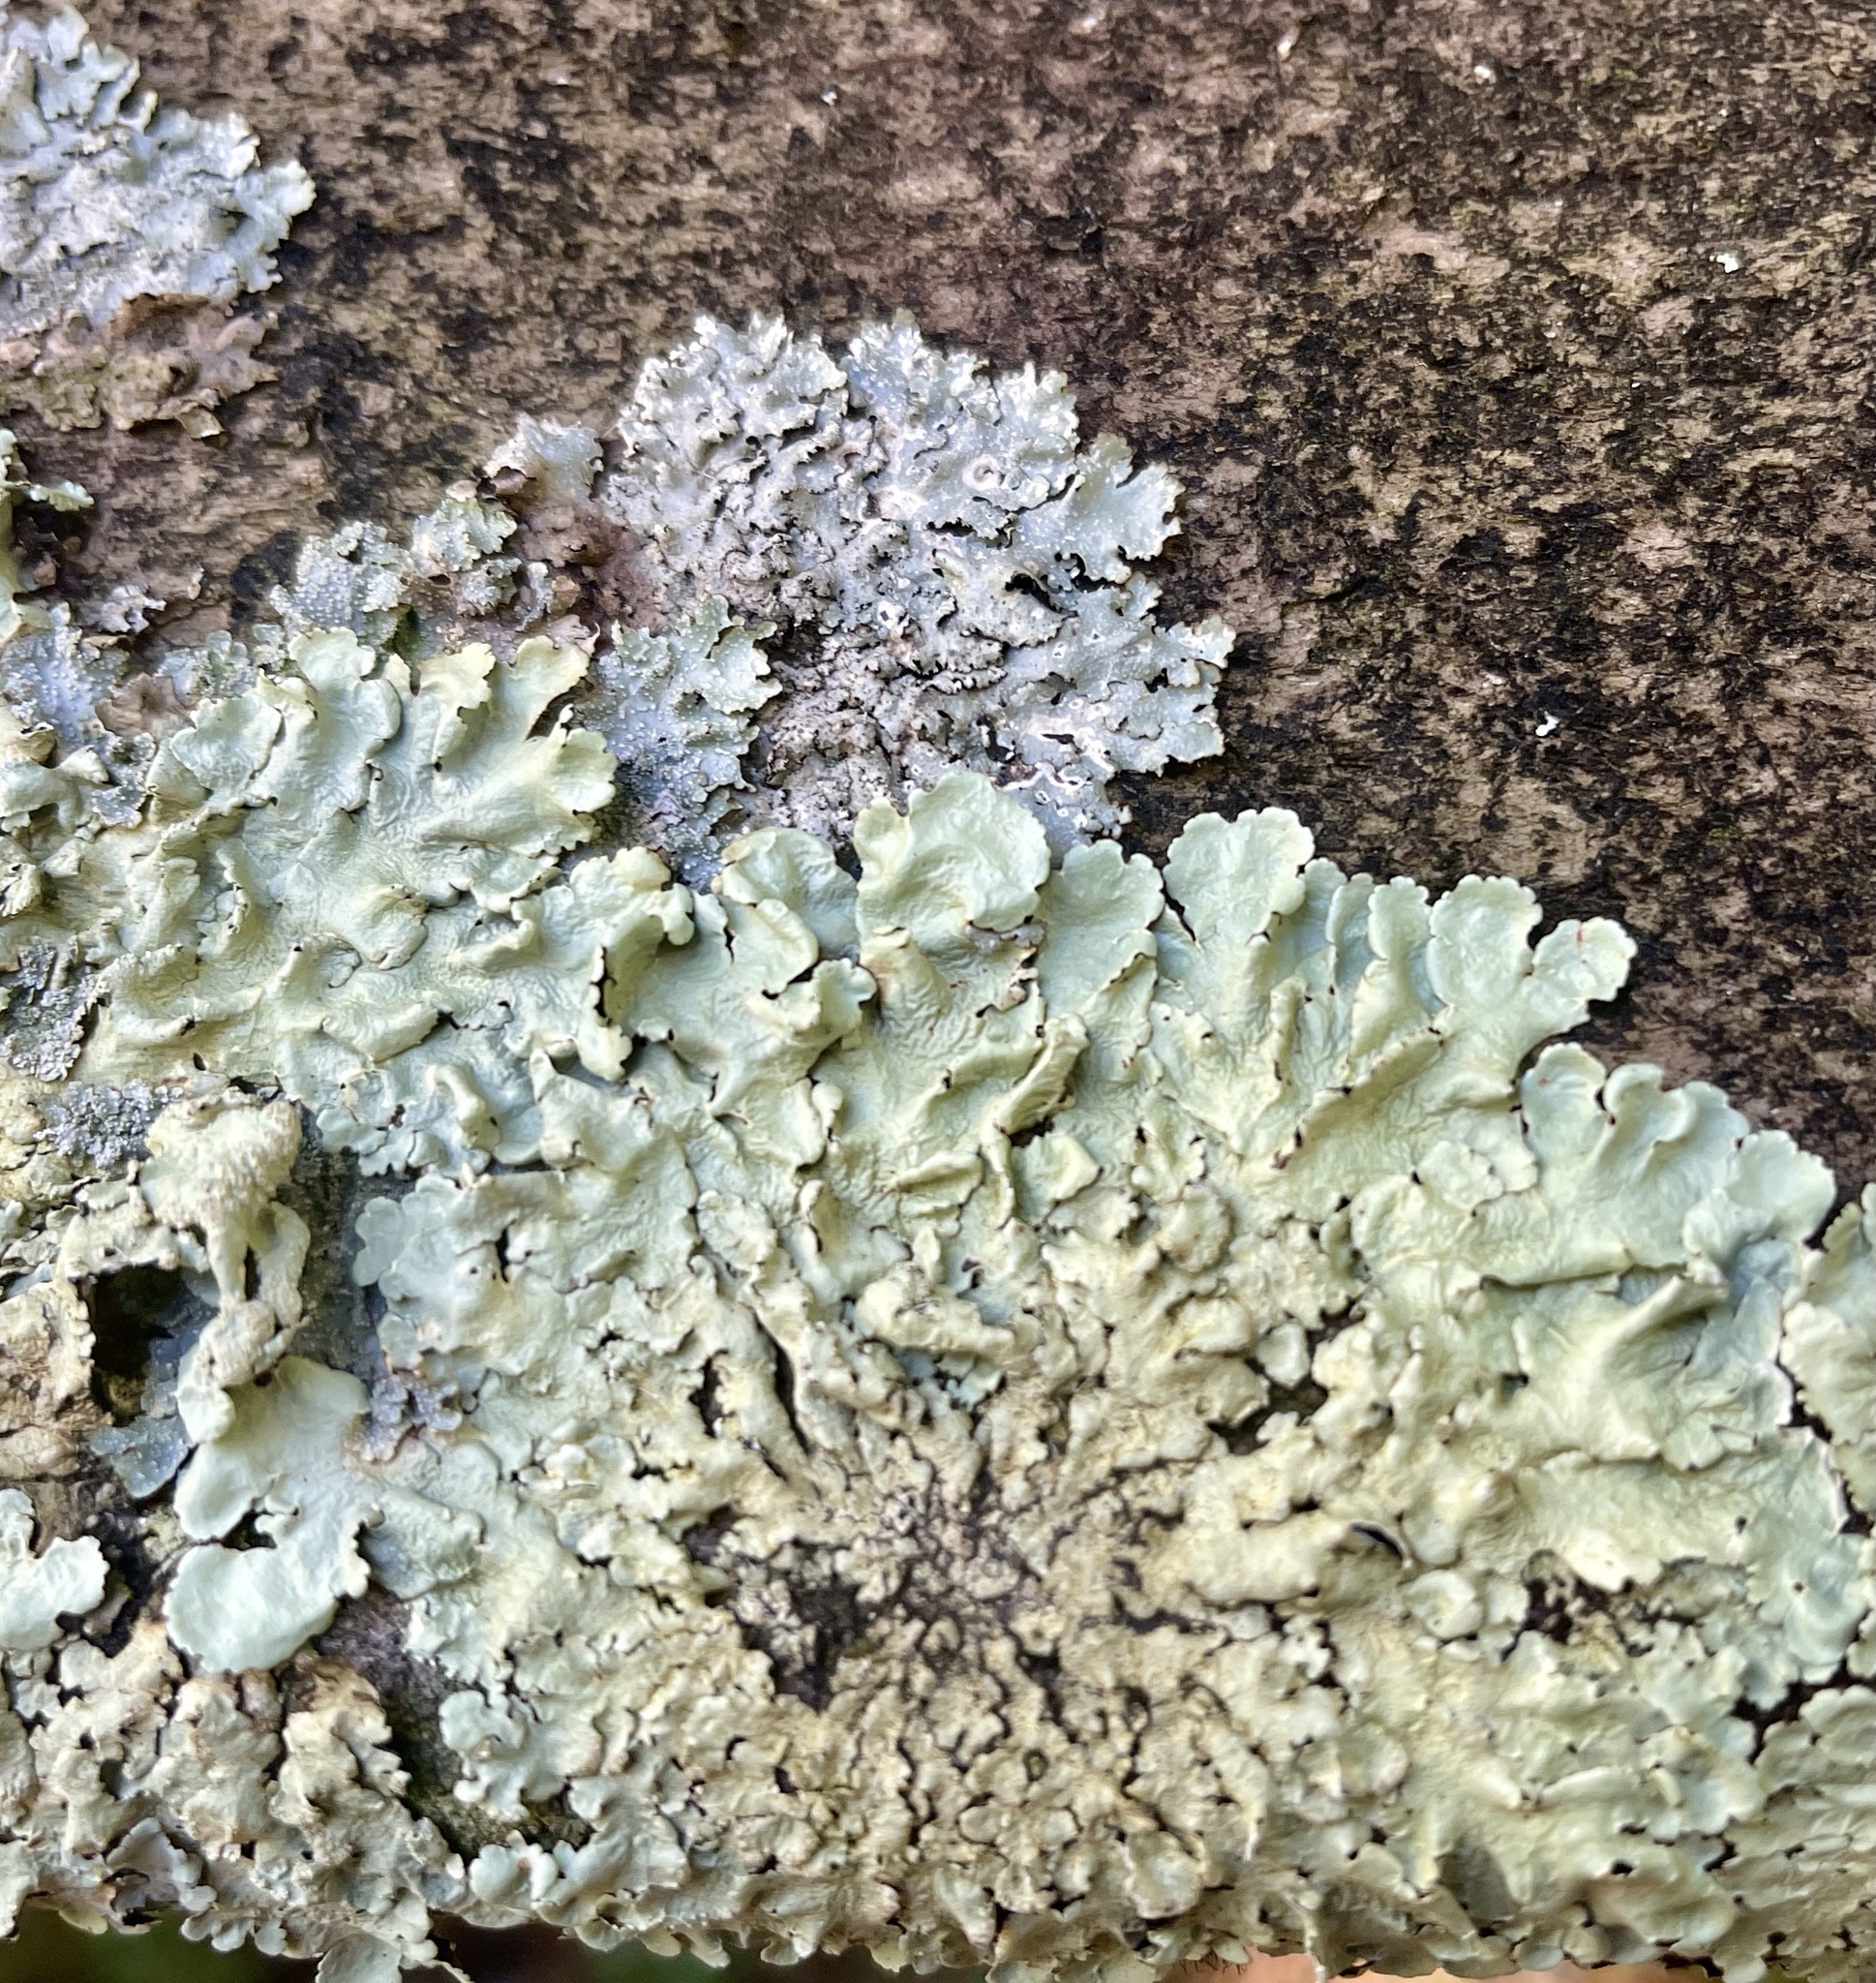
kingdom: Fungi
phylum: Ascomycota
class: Lecanoromycetes
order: Lecanorales
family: Parmeliaceae
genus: Flavoparmelia
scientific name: Flavoparmelia caperata
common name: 40-mile per hour lichen
